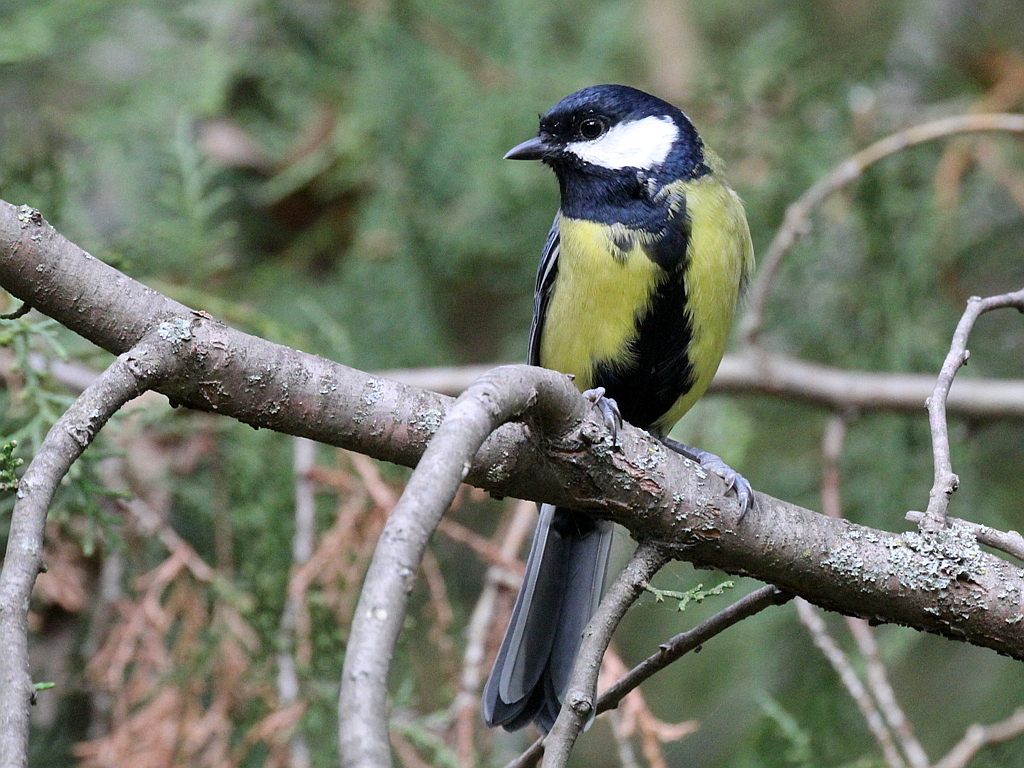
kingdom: Animalia
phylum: Chordata
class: Aves
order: Passeriformes
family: Paridae
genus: Parus
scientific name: Parus major
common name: Great tit
